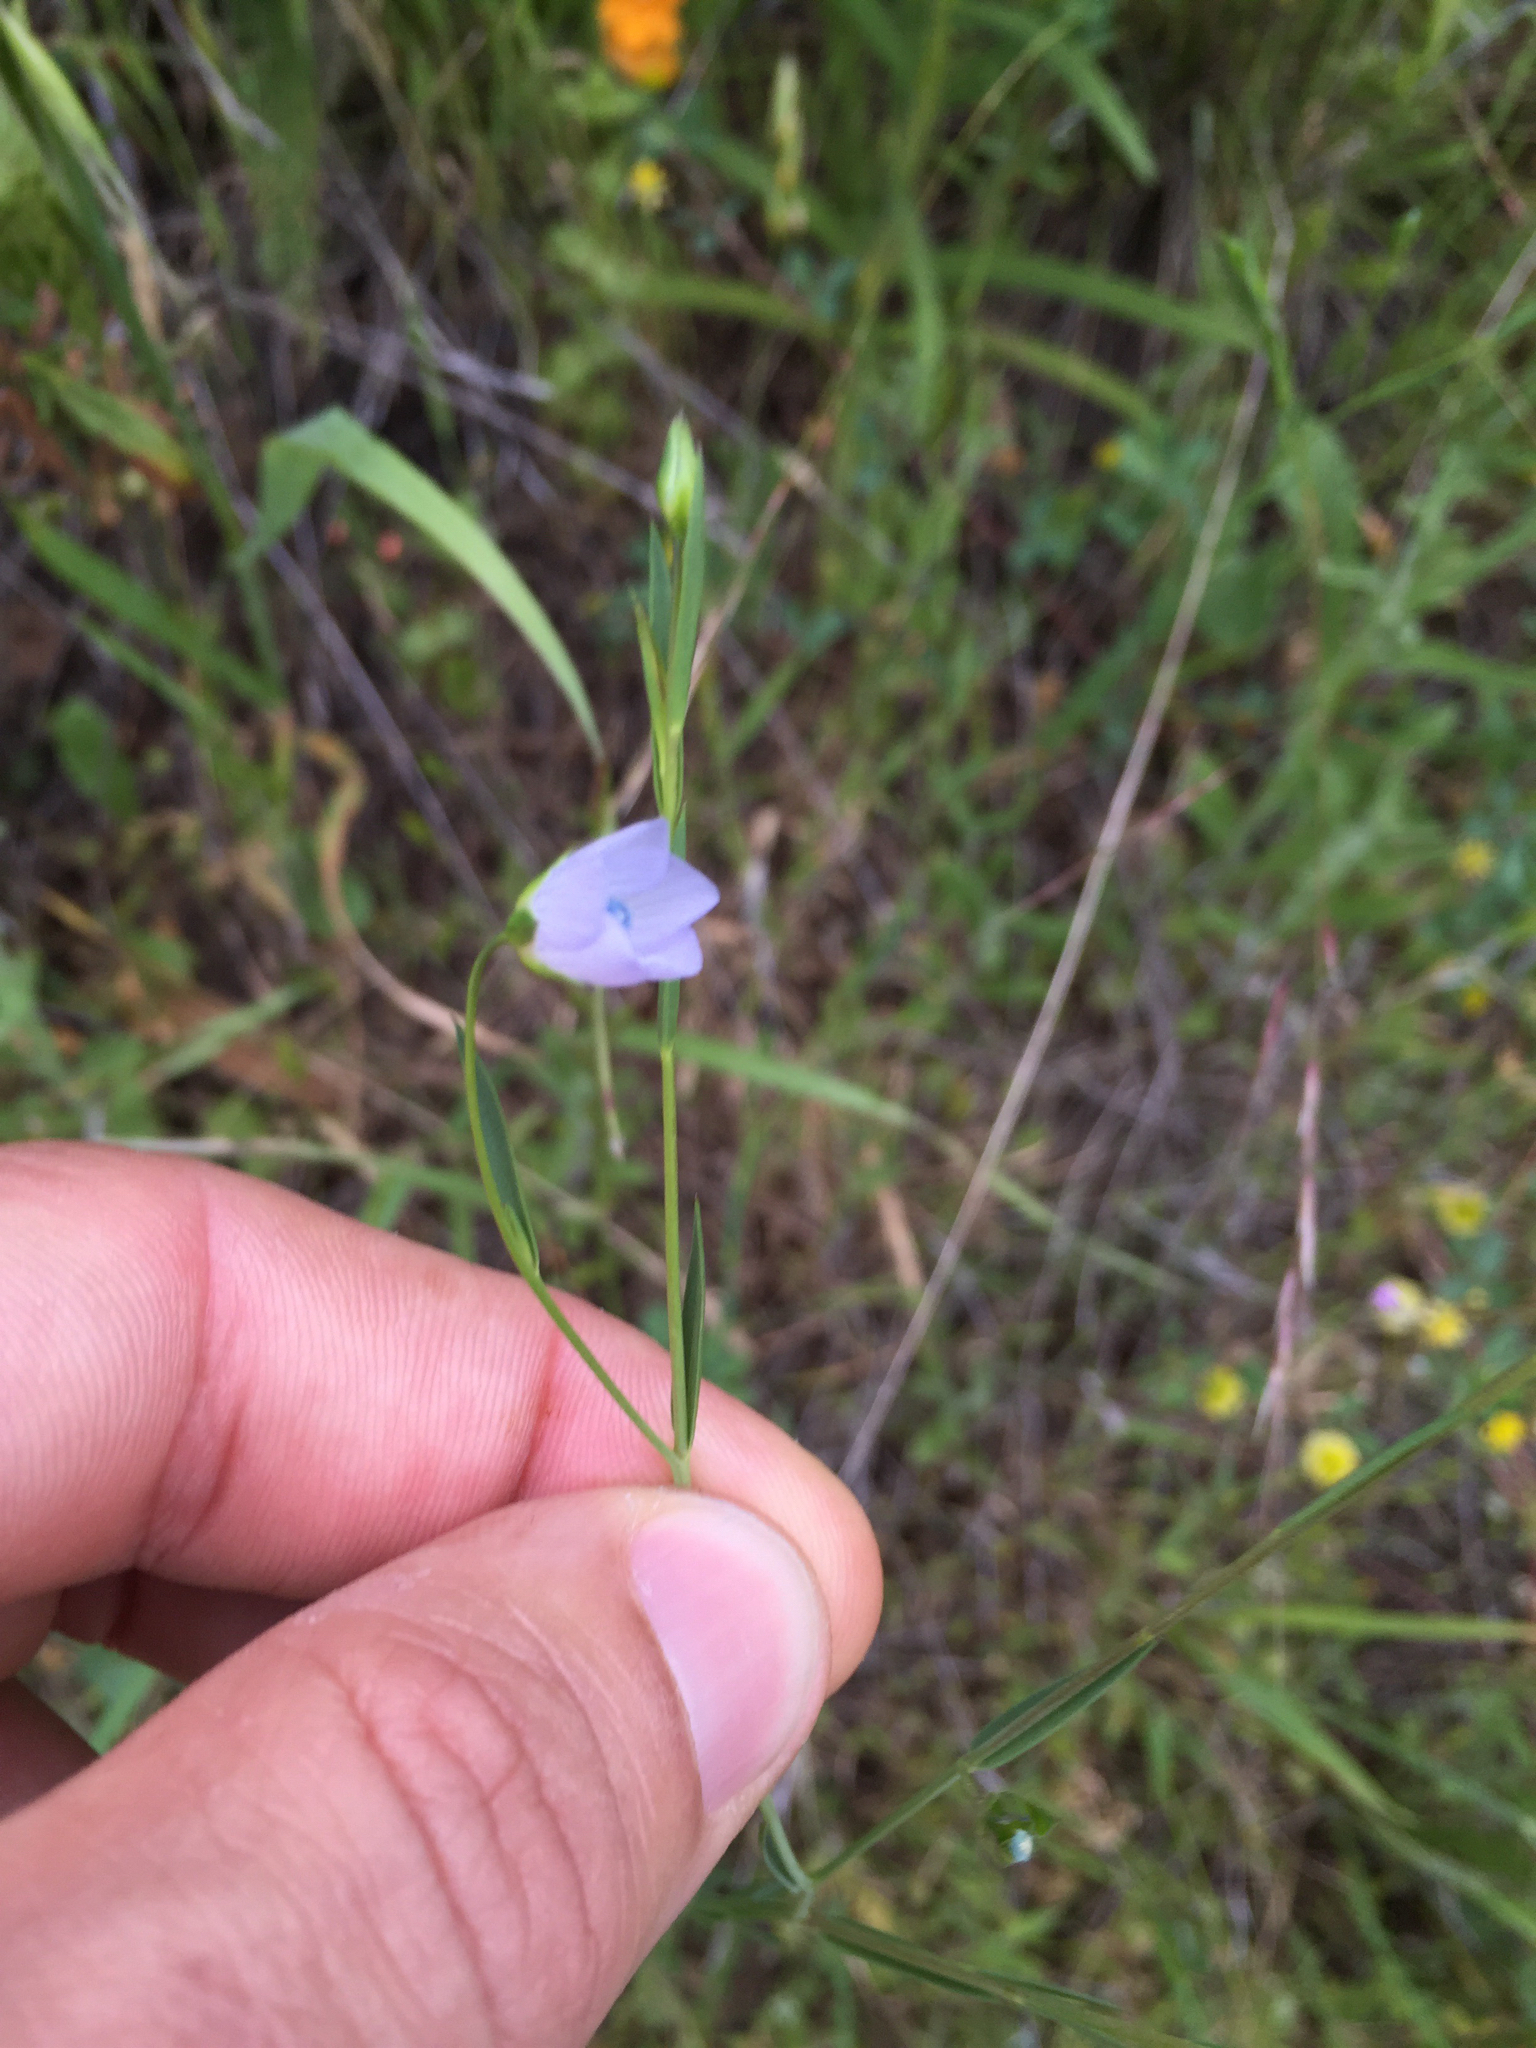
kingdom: Plantae
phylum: Tracheophyta
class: Magnoliopsida
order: Malpighiales
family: Linaceae
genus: Linum
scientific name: Linum bienne
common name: Pale flax
